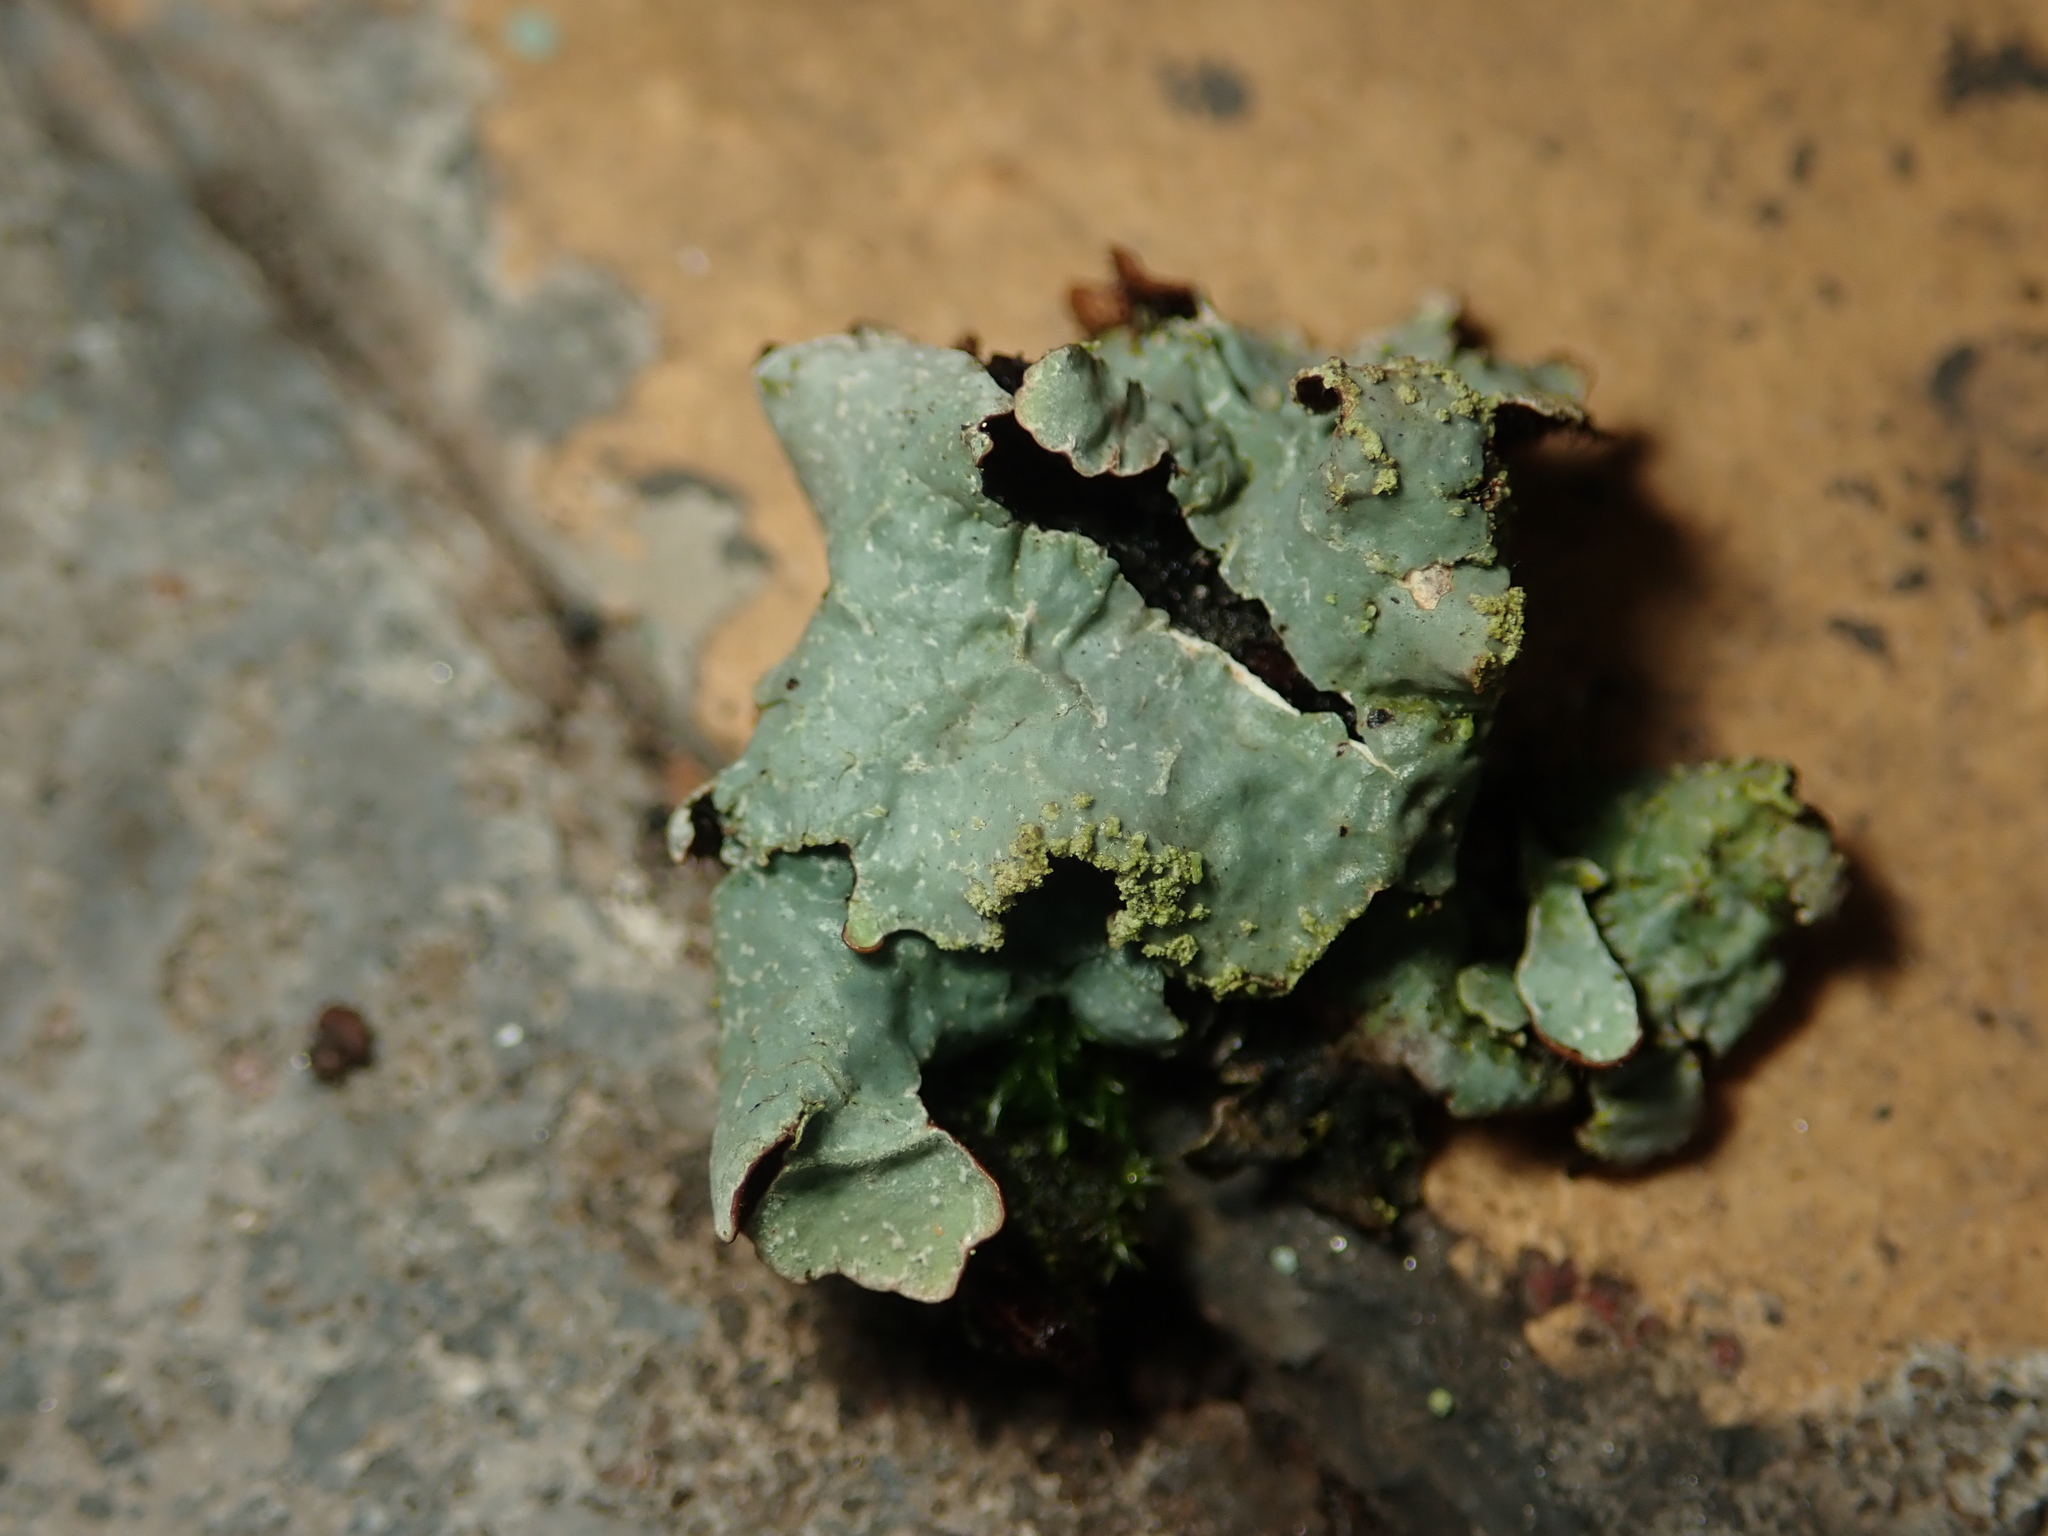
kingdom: Fungi
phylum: Ascomycota
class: Lecanoromycetes
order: Lecanorales
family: Parmeliaceae
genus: Parmelia
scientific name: Parmelia sulcata
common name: Netted shield lichen
